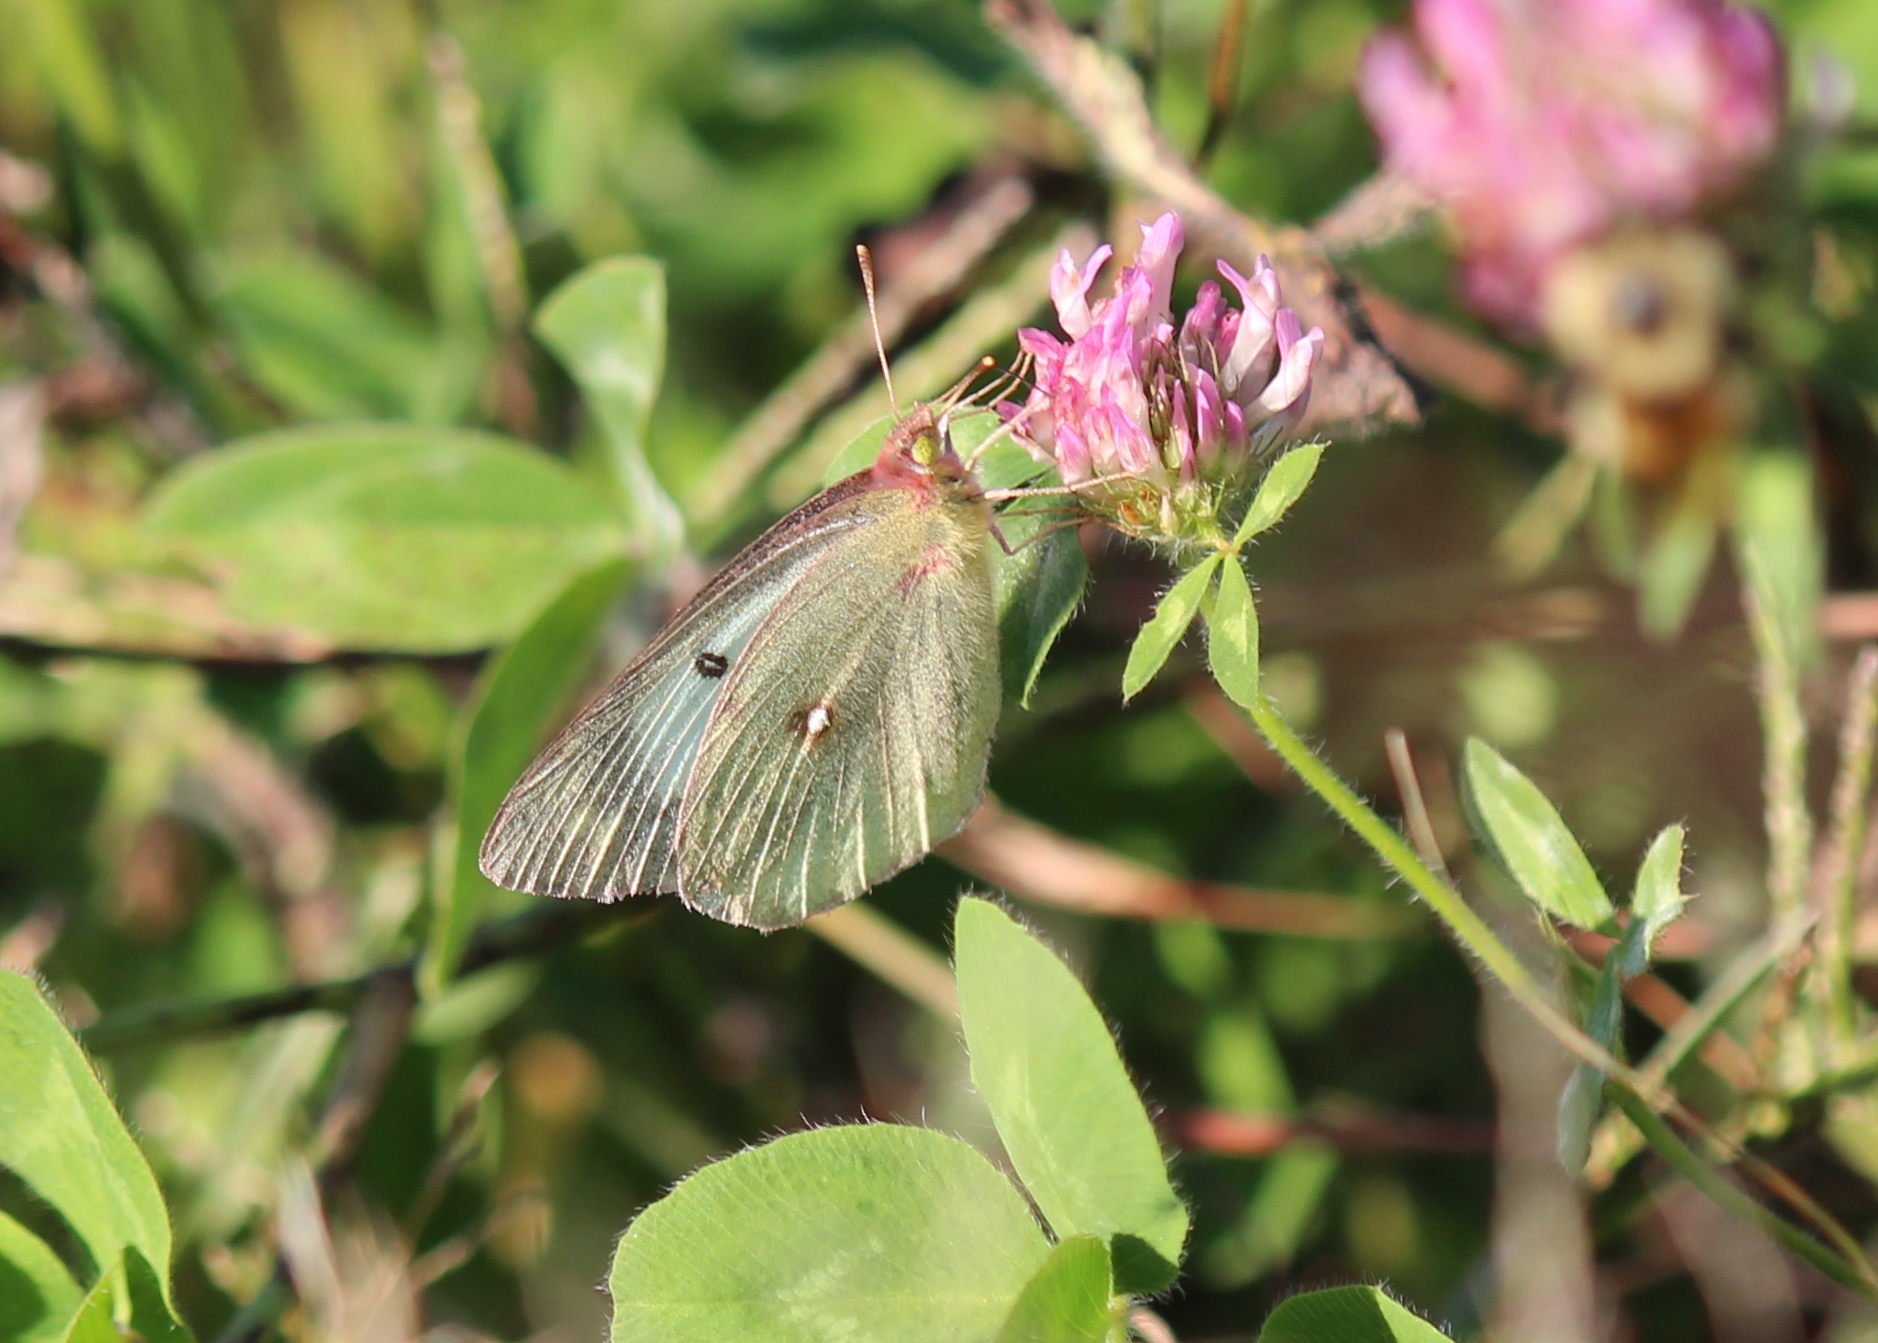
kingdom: Animalia
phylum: Arthropoda
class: Insecta
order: Lepidoptera
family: Pieridae
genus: Colias
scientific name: Colias philodice
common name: Clouded sulphur
